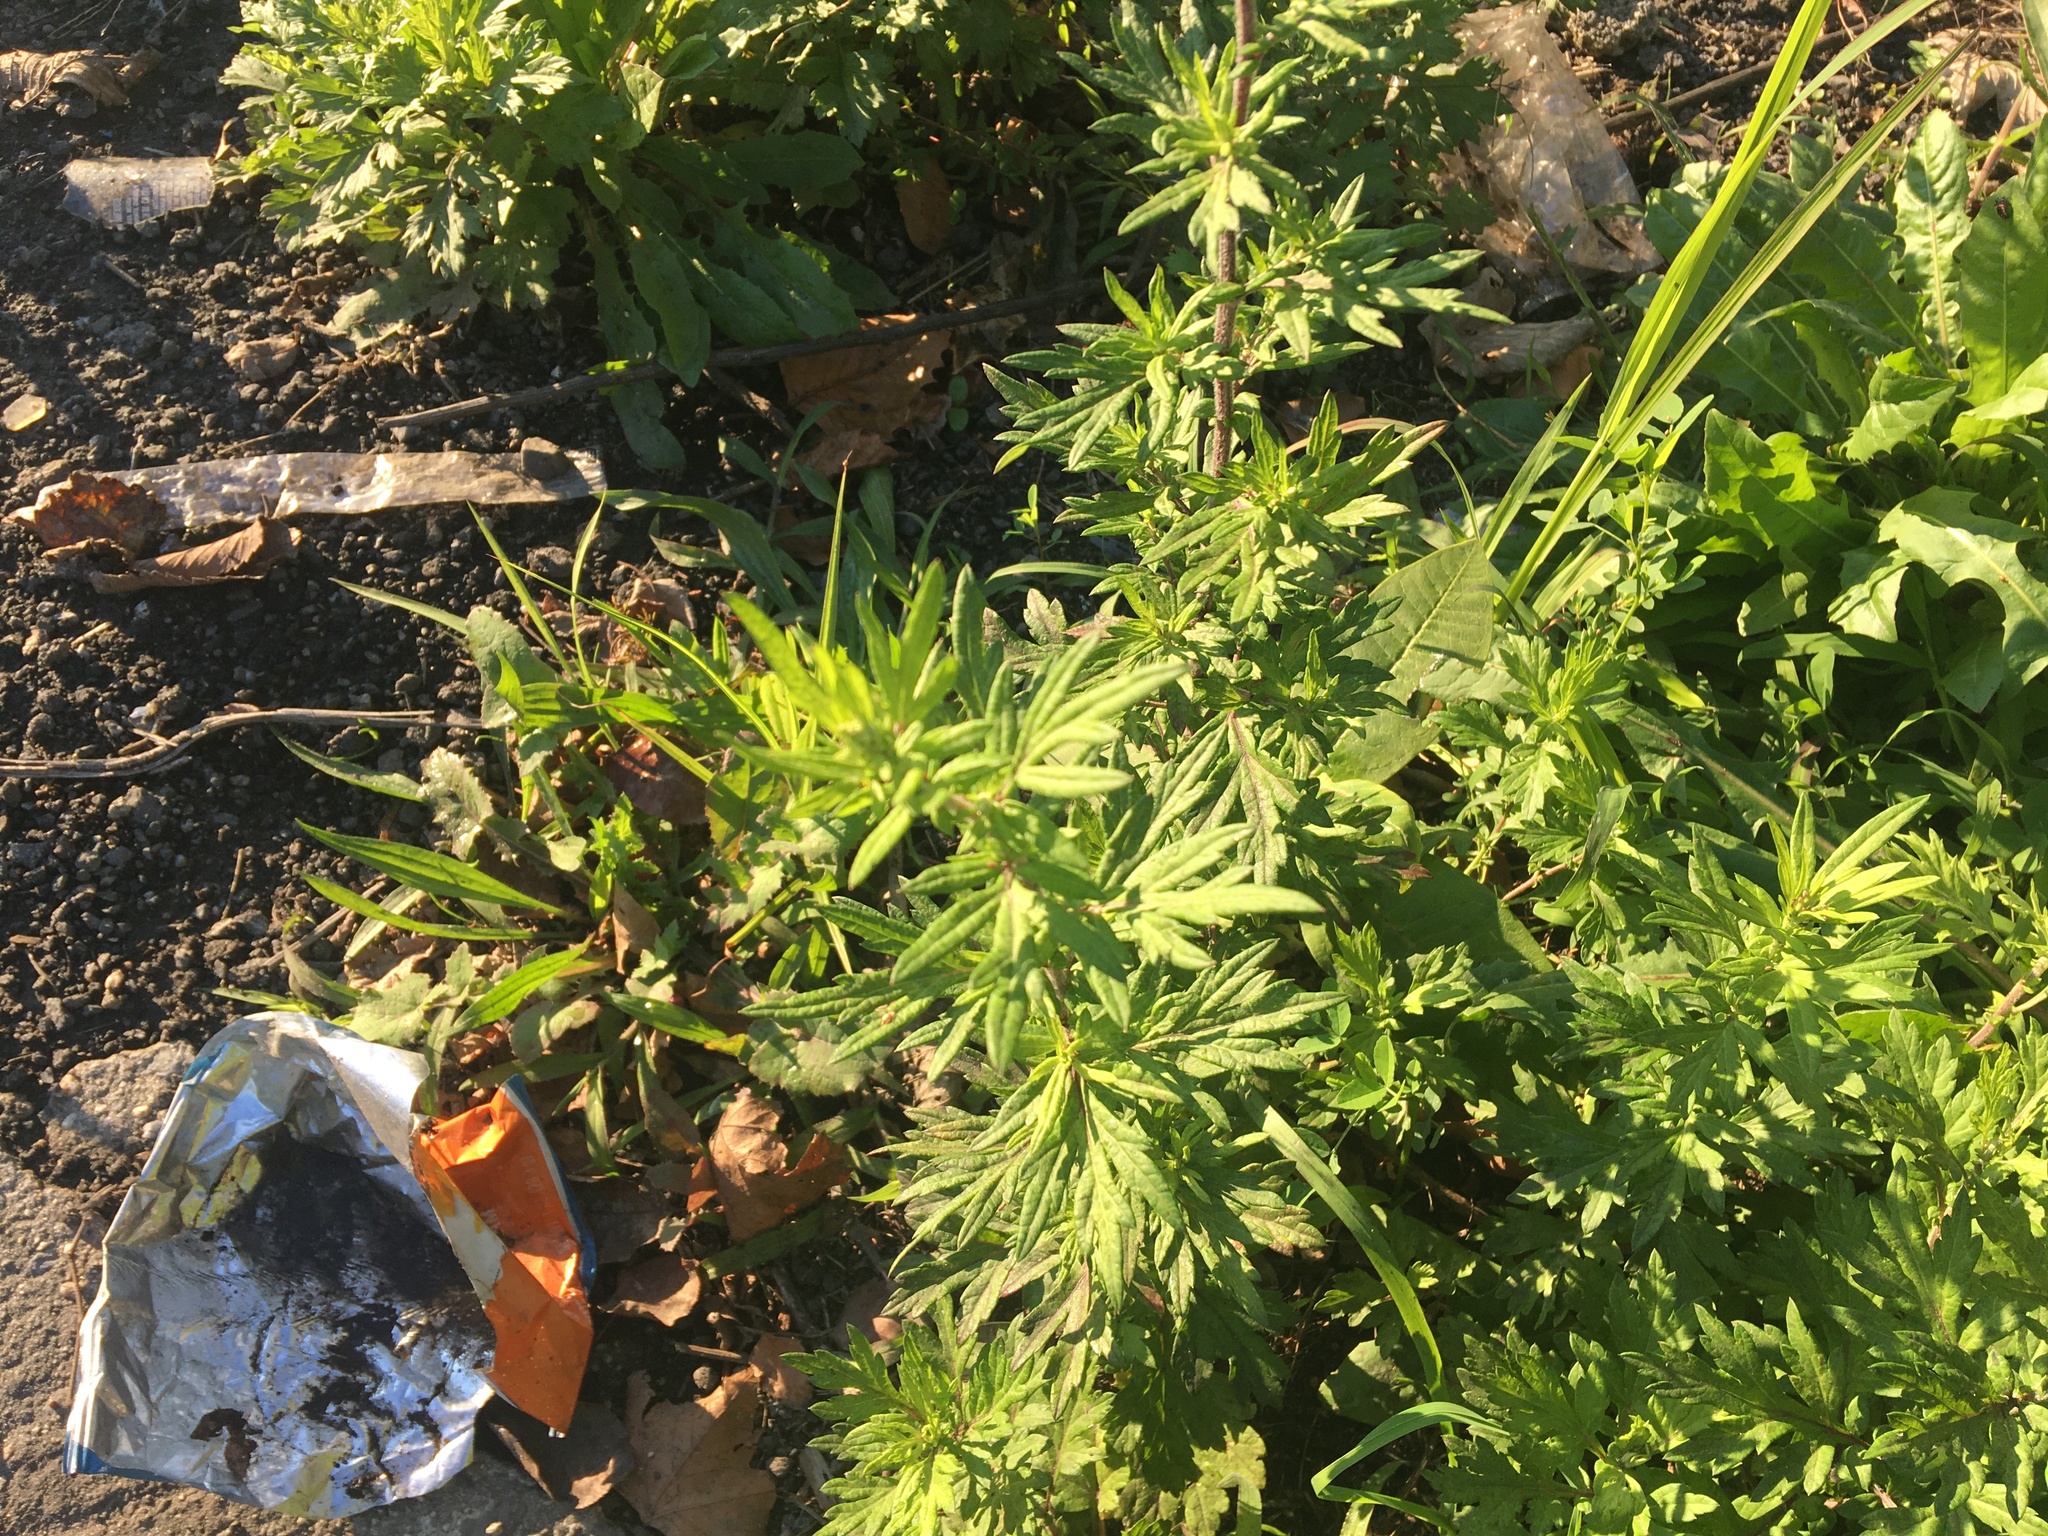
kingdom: Plantae
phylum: Tracheophyta
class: Magnoliopsida
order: Asterales
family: Asteraceae
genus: Artemisia
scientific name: Artemisia vulgaris
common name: Mugwort
